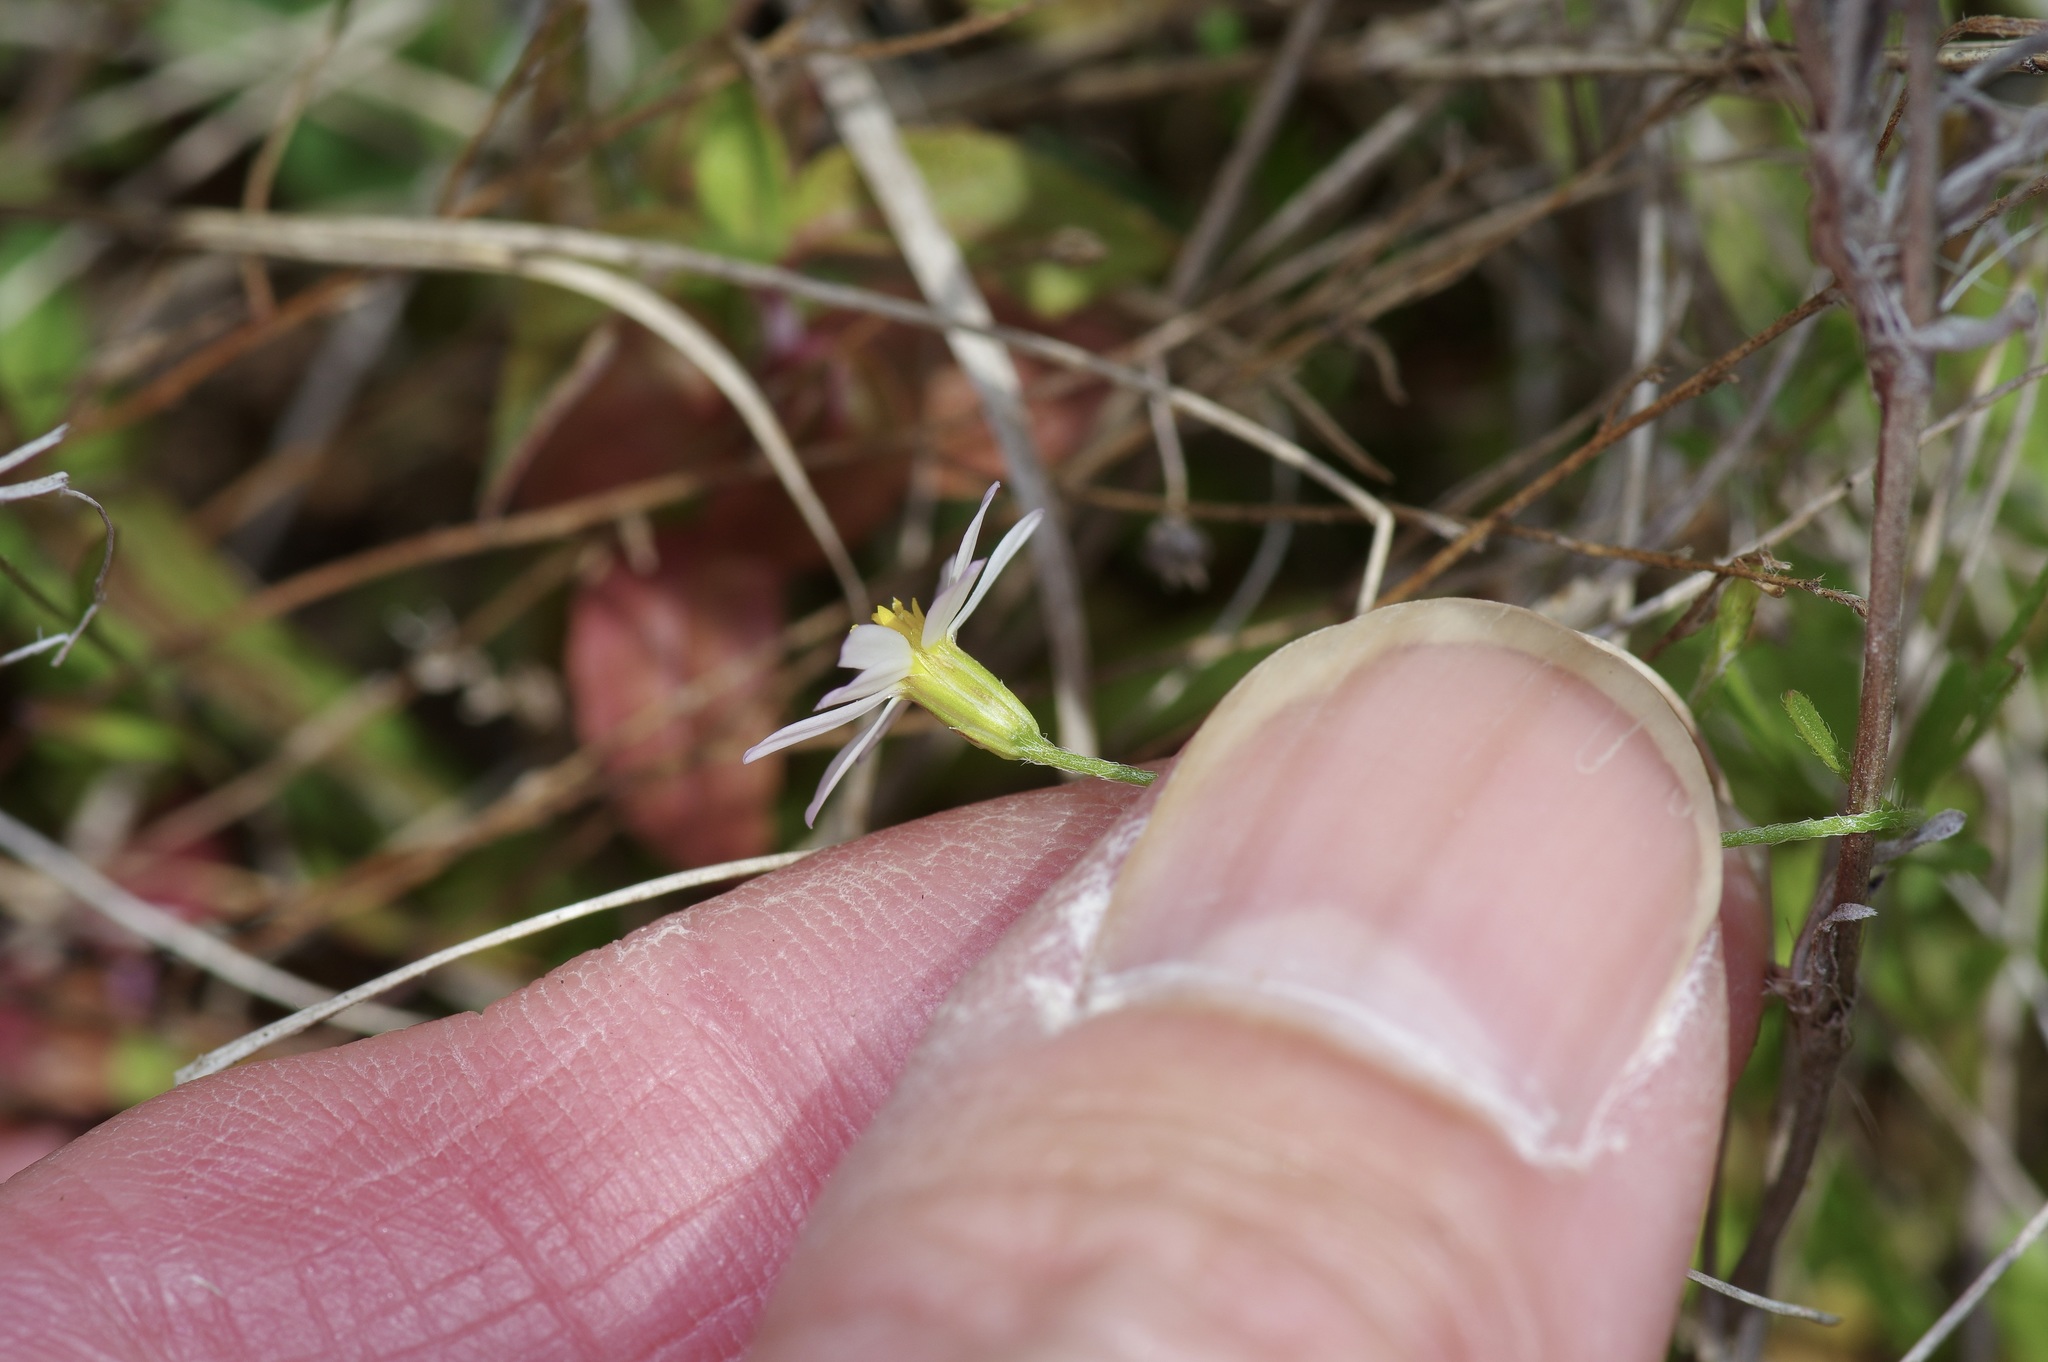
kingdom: Plantae
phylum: Tracheophyta
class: Magnoliopsida
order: Asterales
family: Asteraceae
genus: Chaetopappa
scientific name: Chaetopappa asteroides
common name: Tiny lazy daisy
